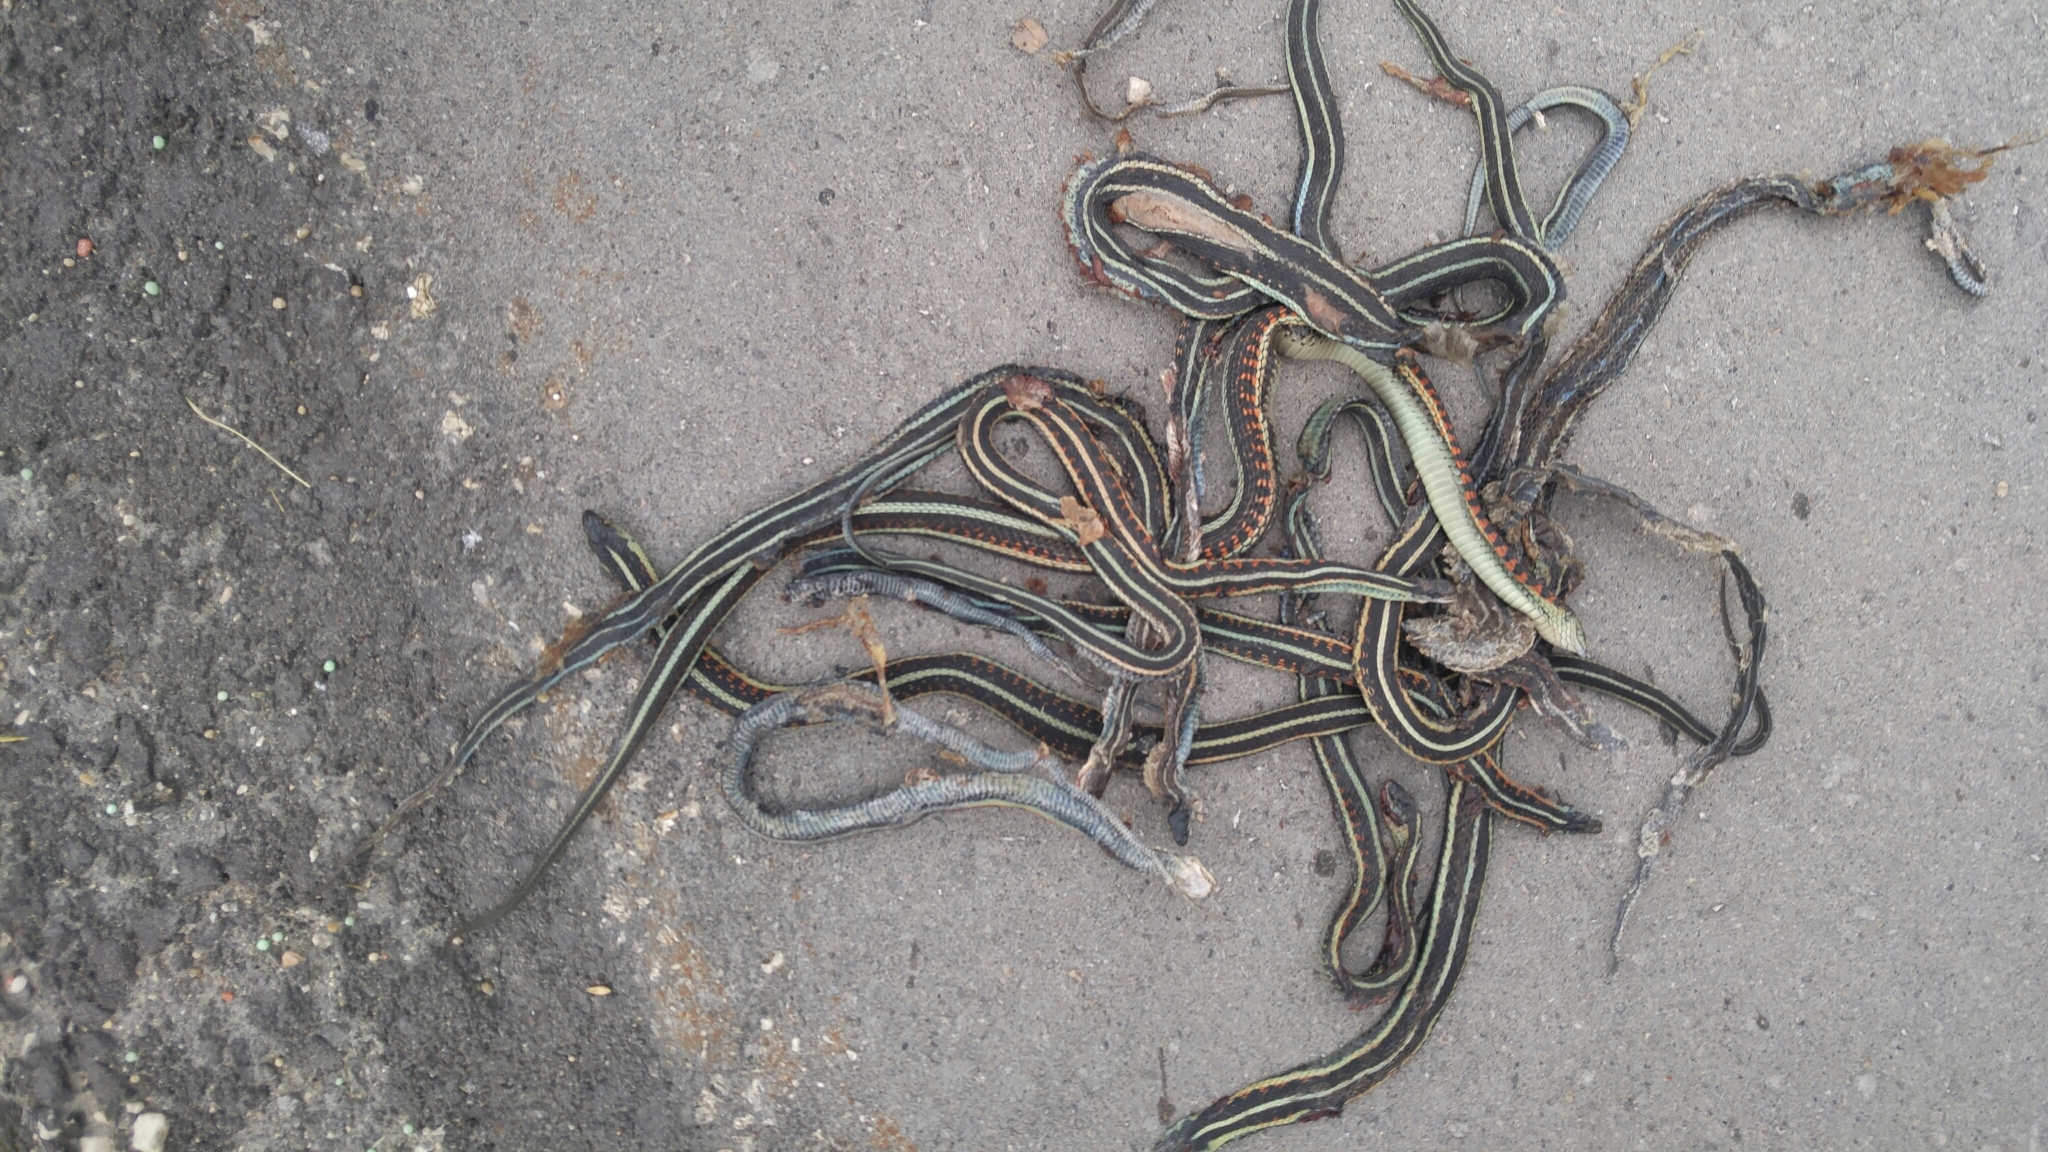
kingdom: Animalia
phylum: Chordata
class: Squamata
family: Colubridae
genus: Thamnophis
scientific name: Thamnophis sirtalis
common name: Common garter snake
